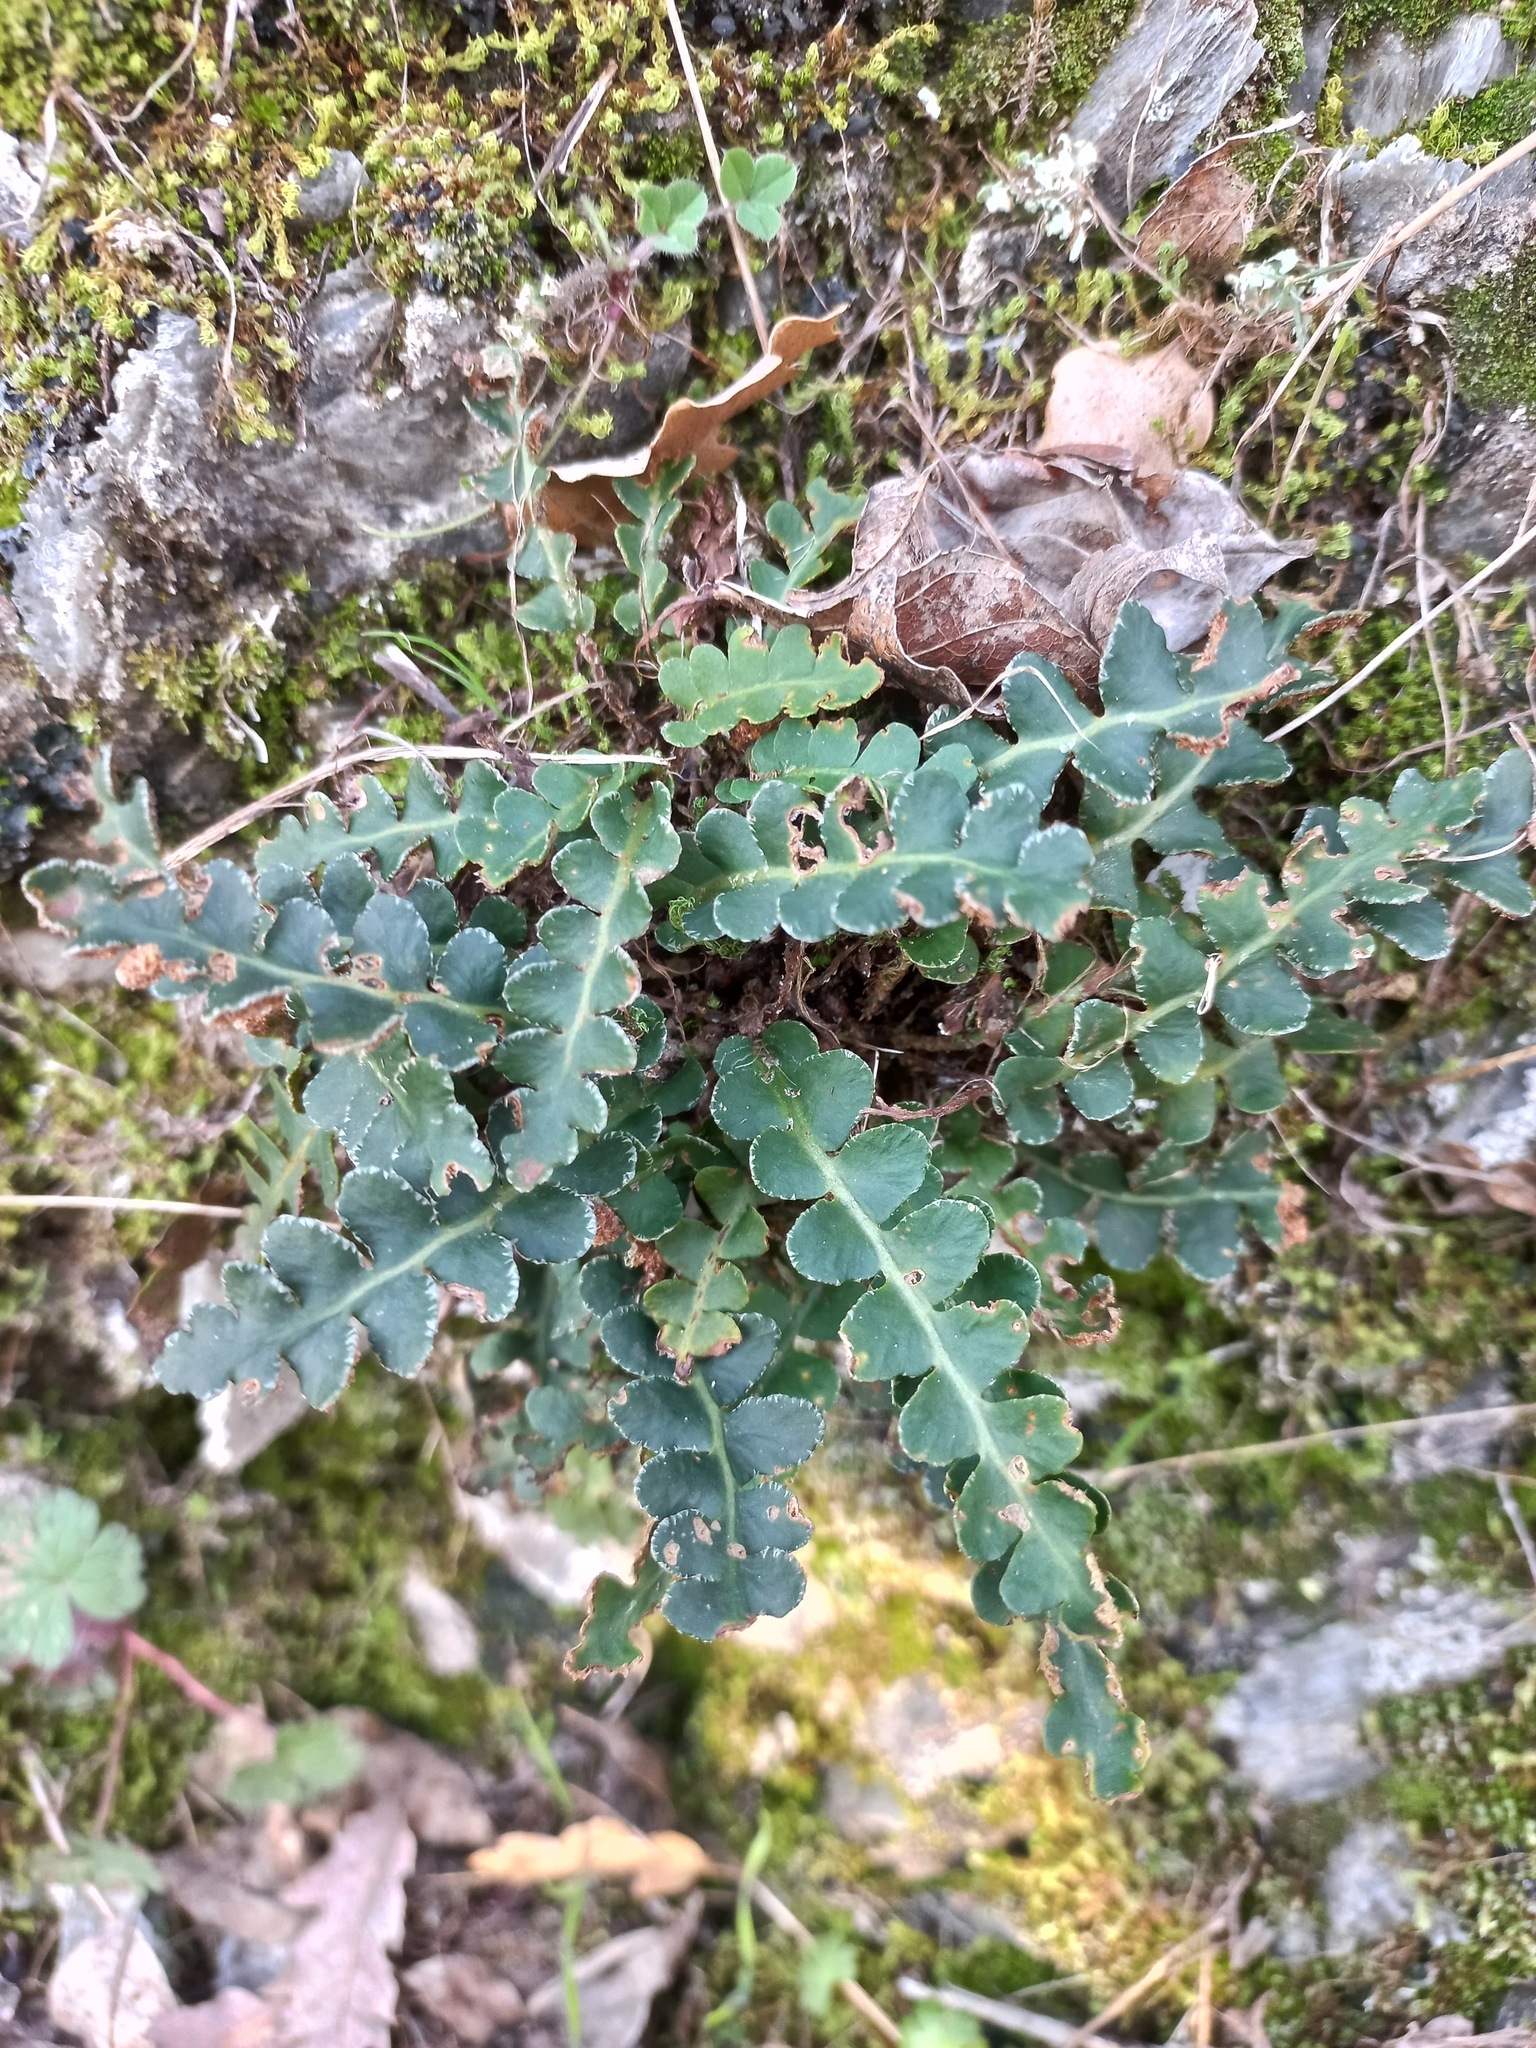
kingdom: Plantae
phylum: Tracheophyta
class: Polypodiopsida
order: Polypodiales
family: Aspleniaceae
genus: Asplenium
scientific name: Asplenium ceterach
